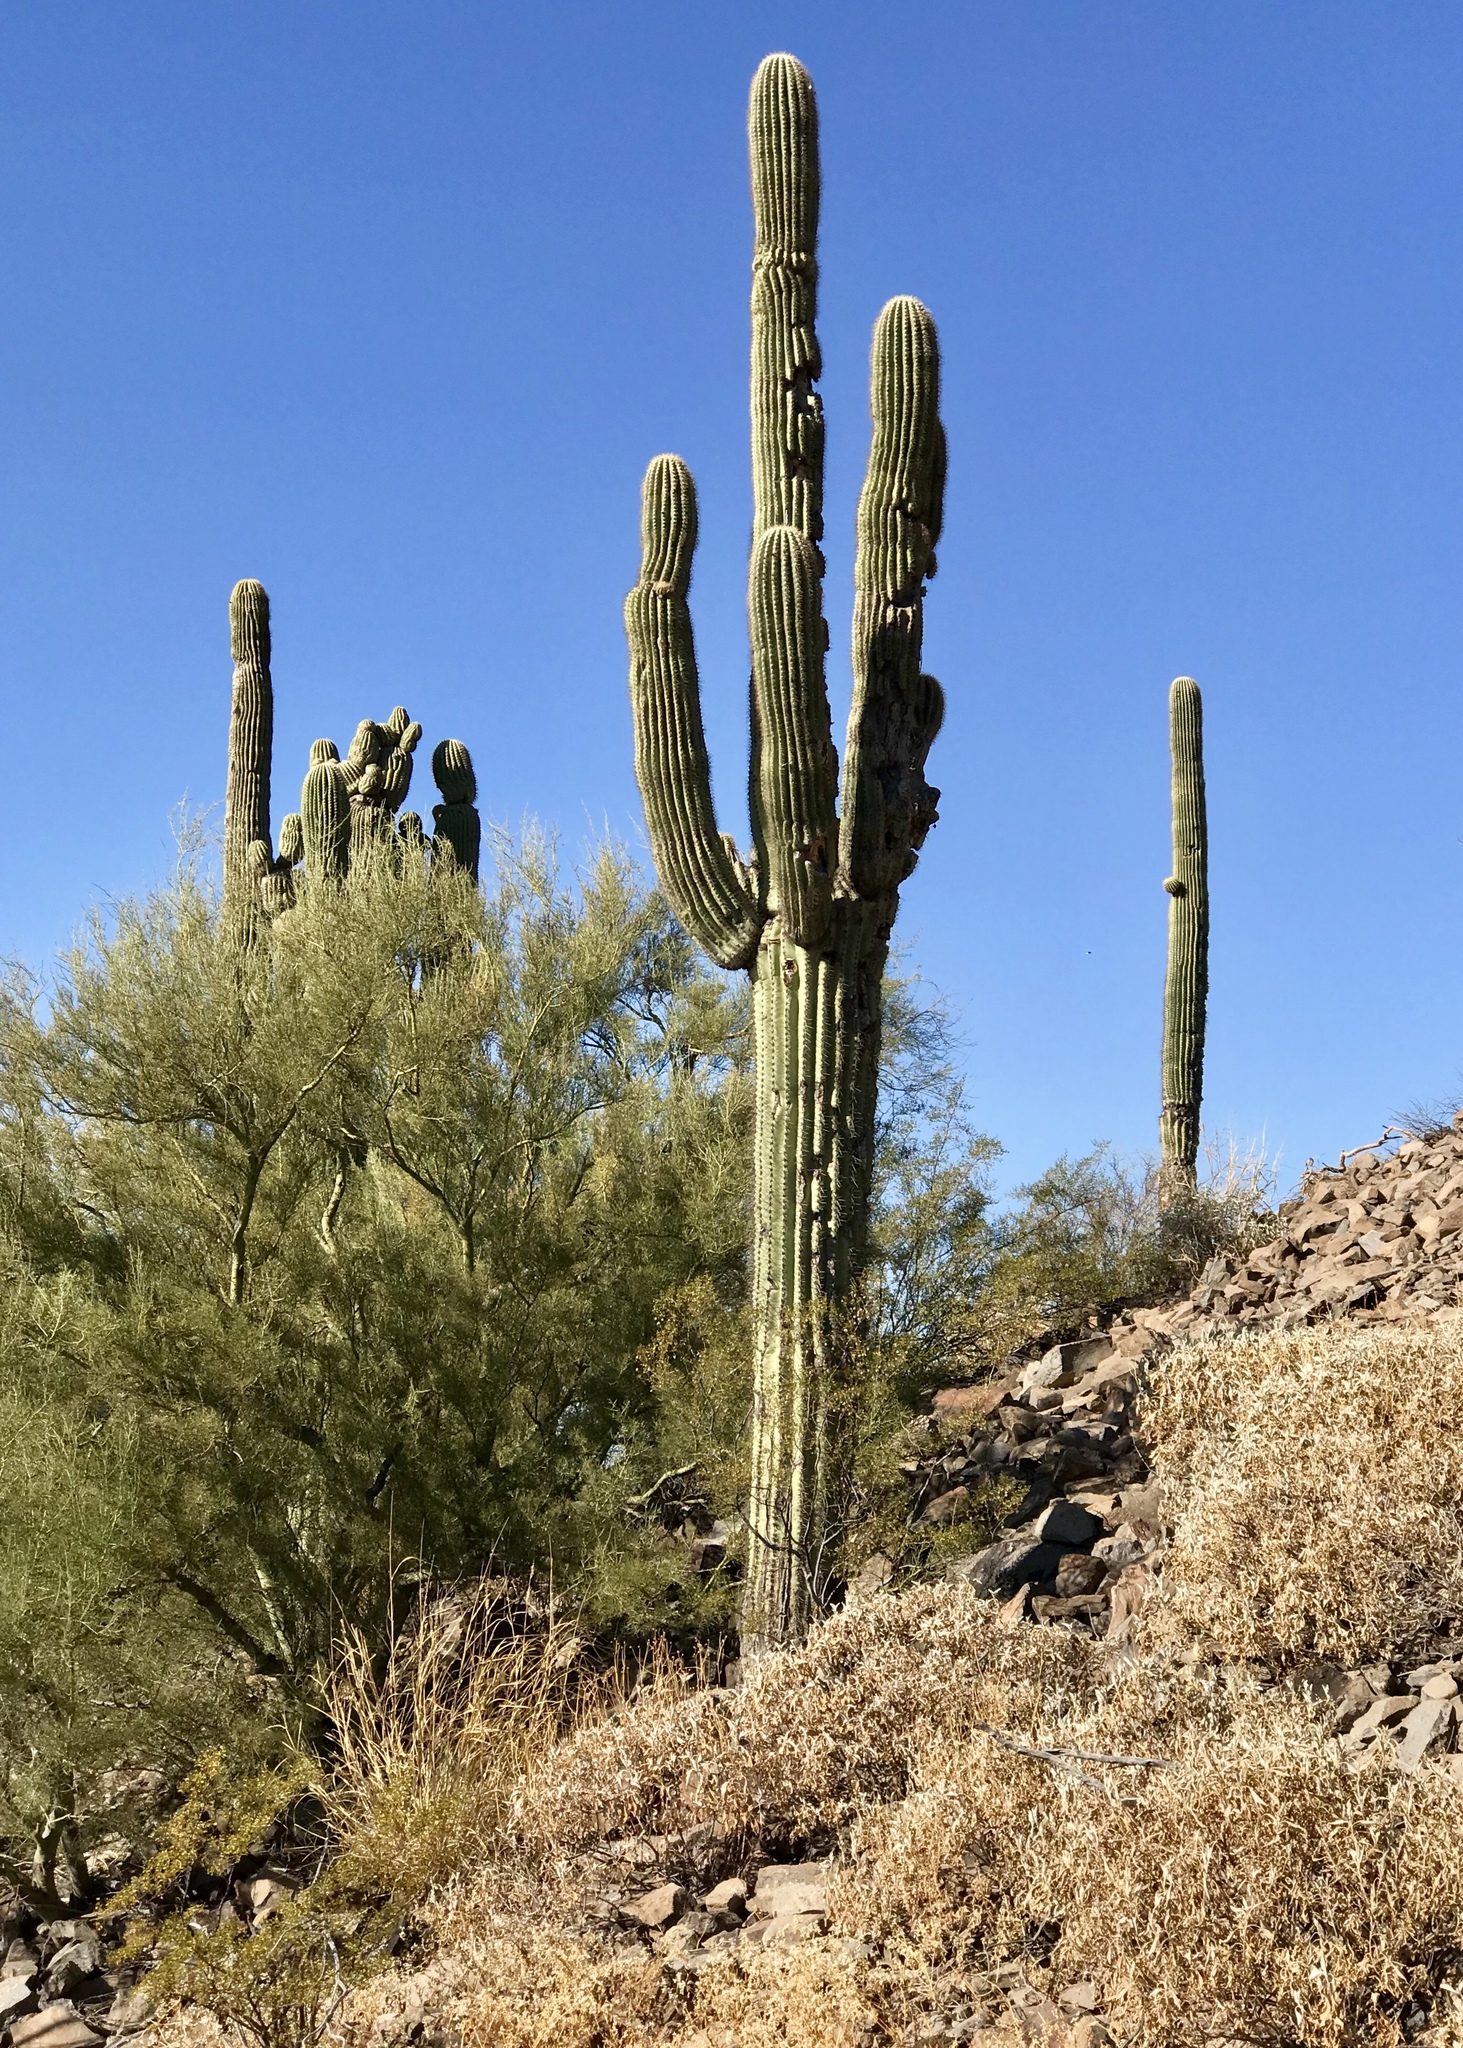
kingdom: Plantae
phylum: Tracheophyta
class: Magnoliopsida
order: Caryophyllales
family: Cactaceae
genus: Carnegiea
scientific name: Carnegiea gigantea
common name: Saguaro
